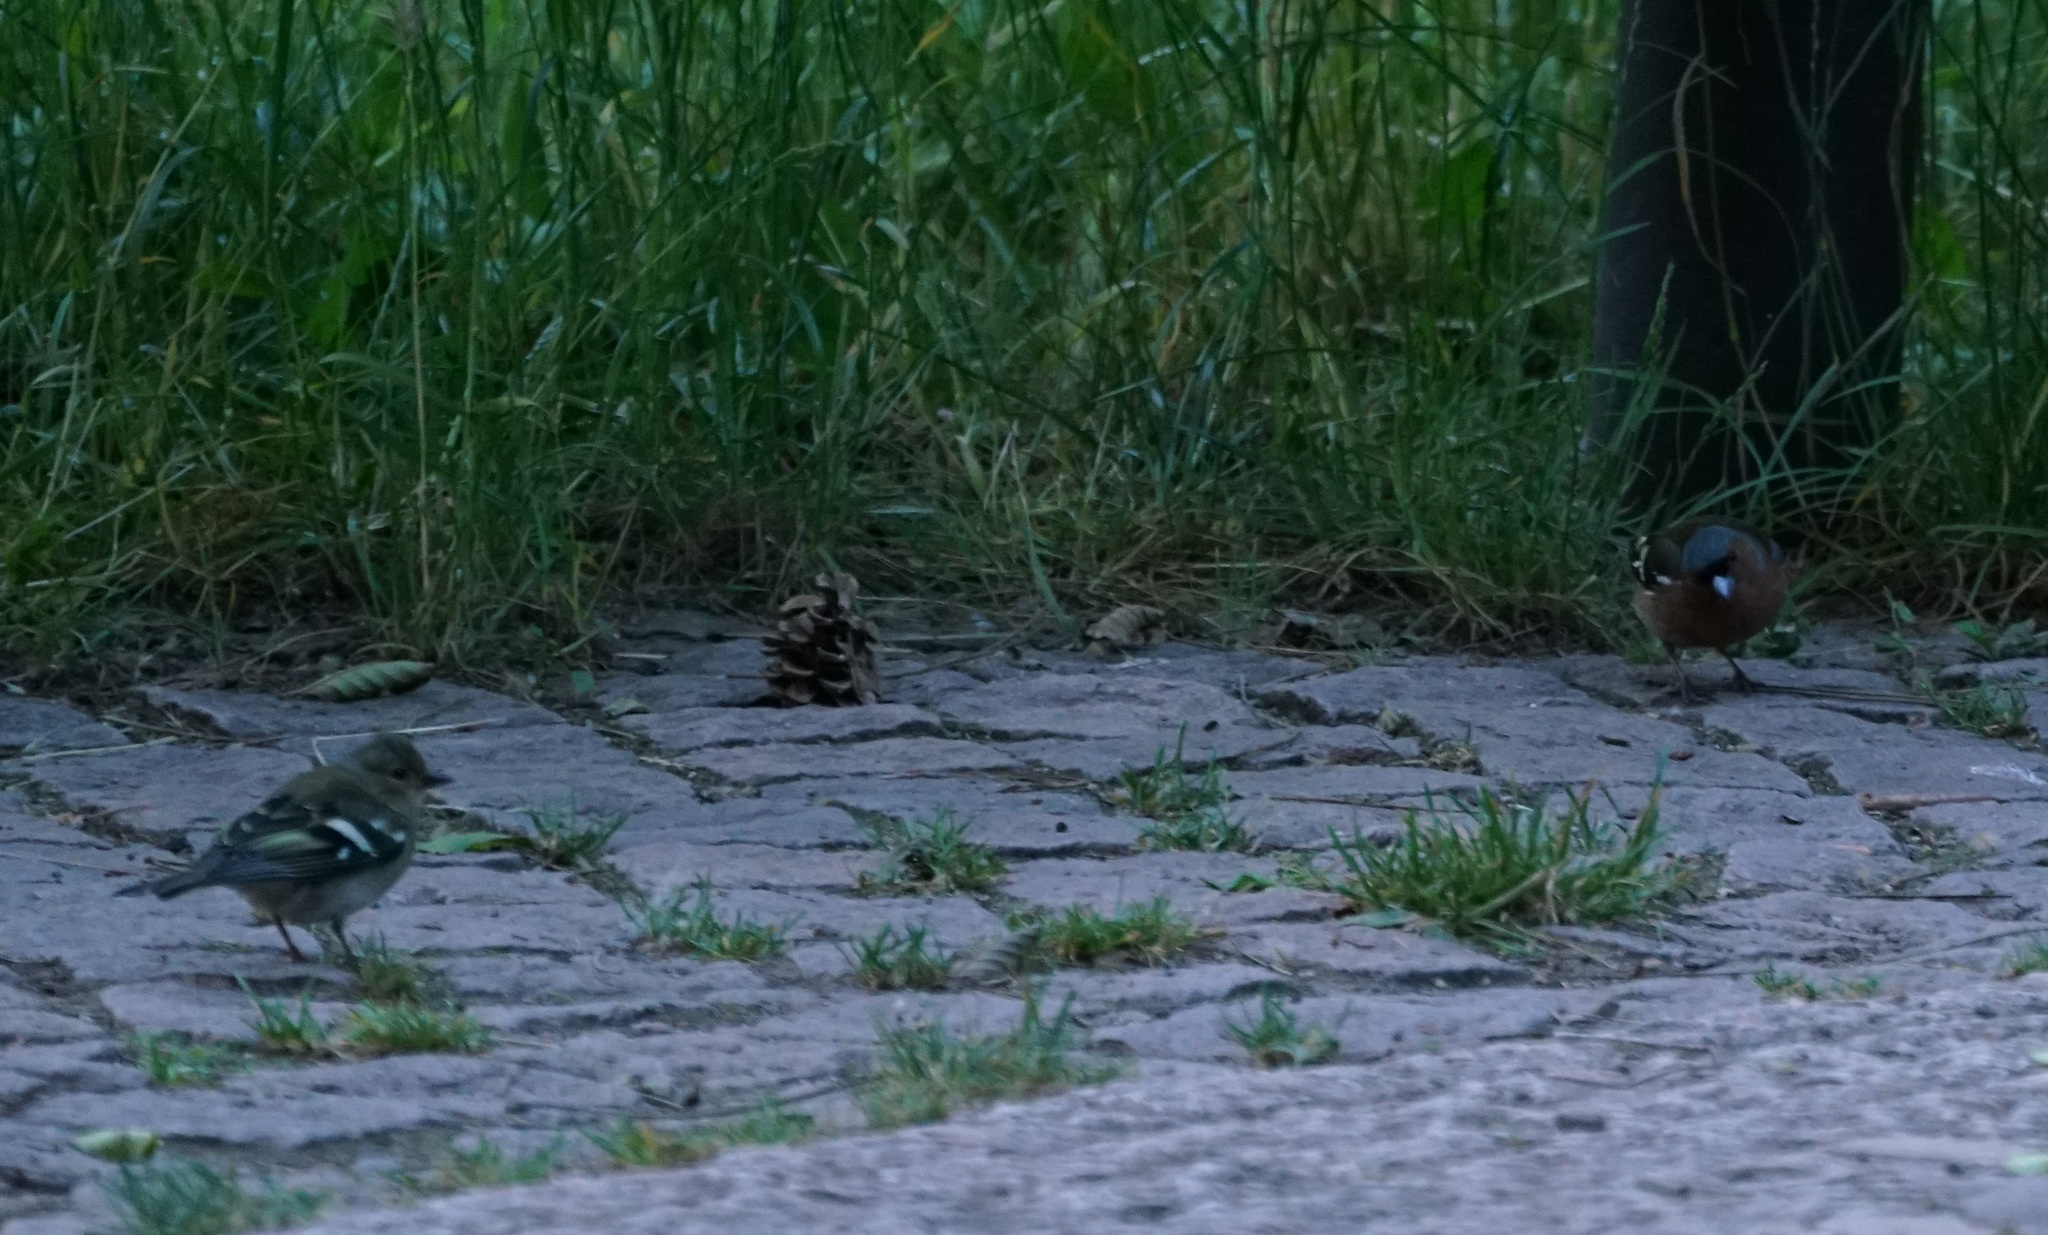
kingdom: Animalia
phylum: Chordata
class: Aves
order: Passeriformes
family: Fringillidae
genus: Fringilla
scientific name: Fringilla coelebs
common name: Common chaffinch
